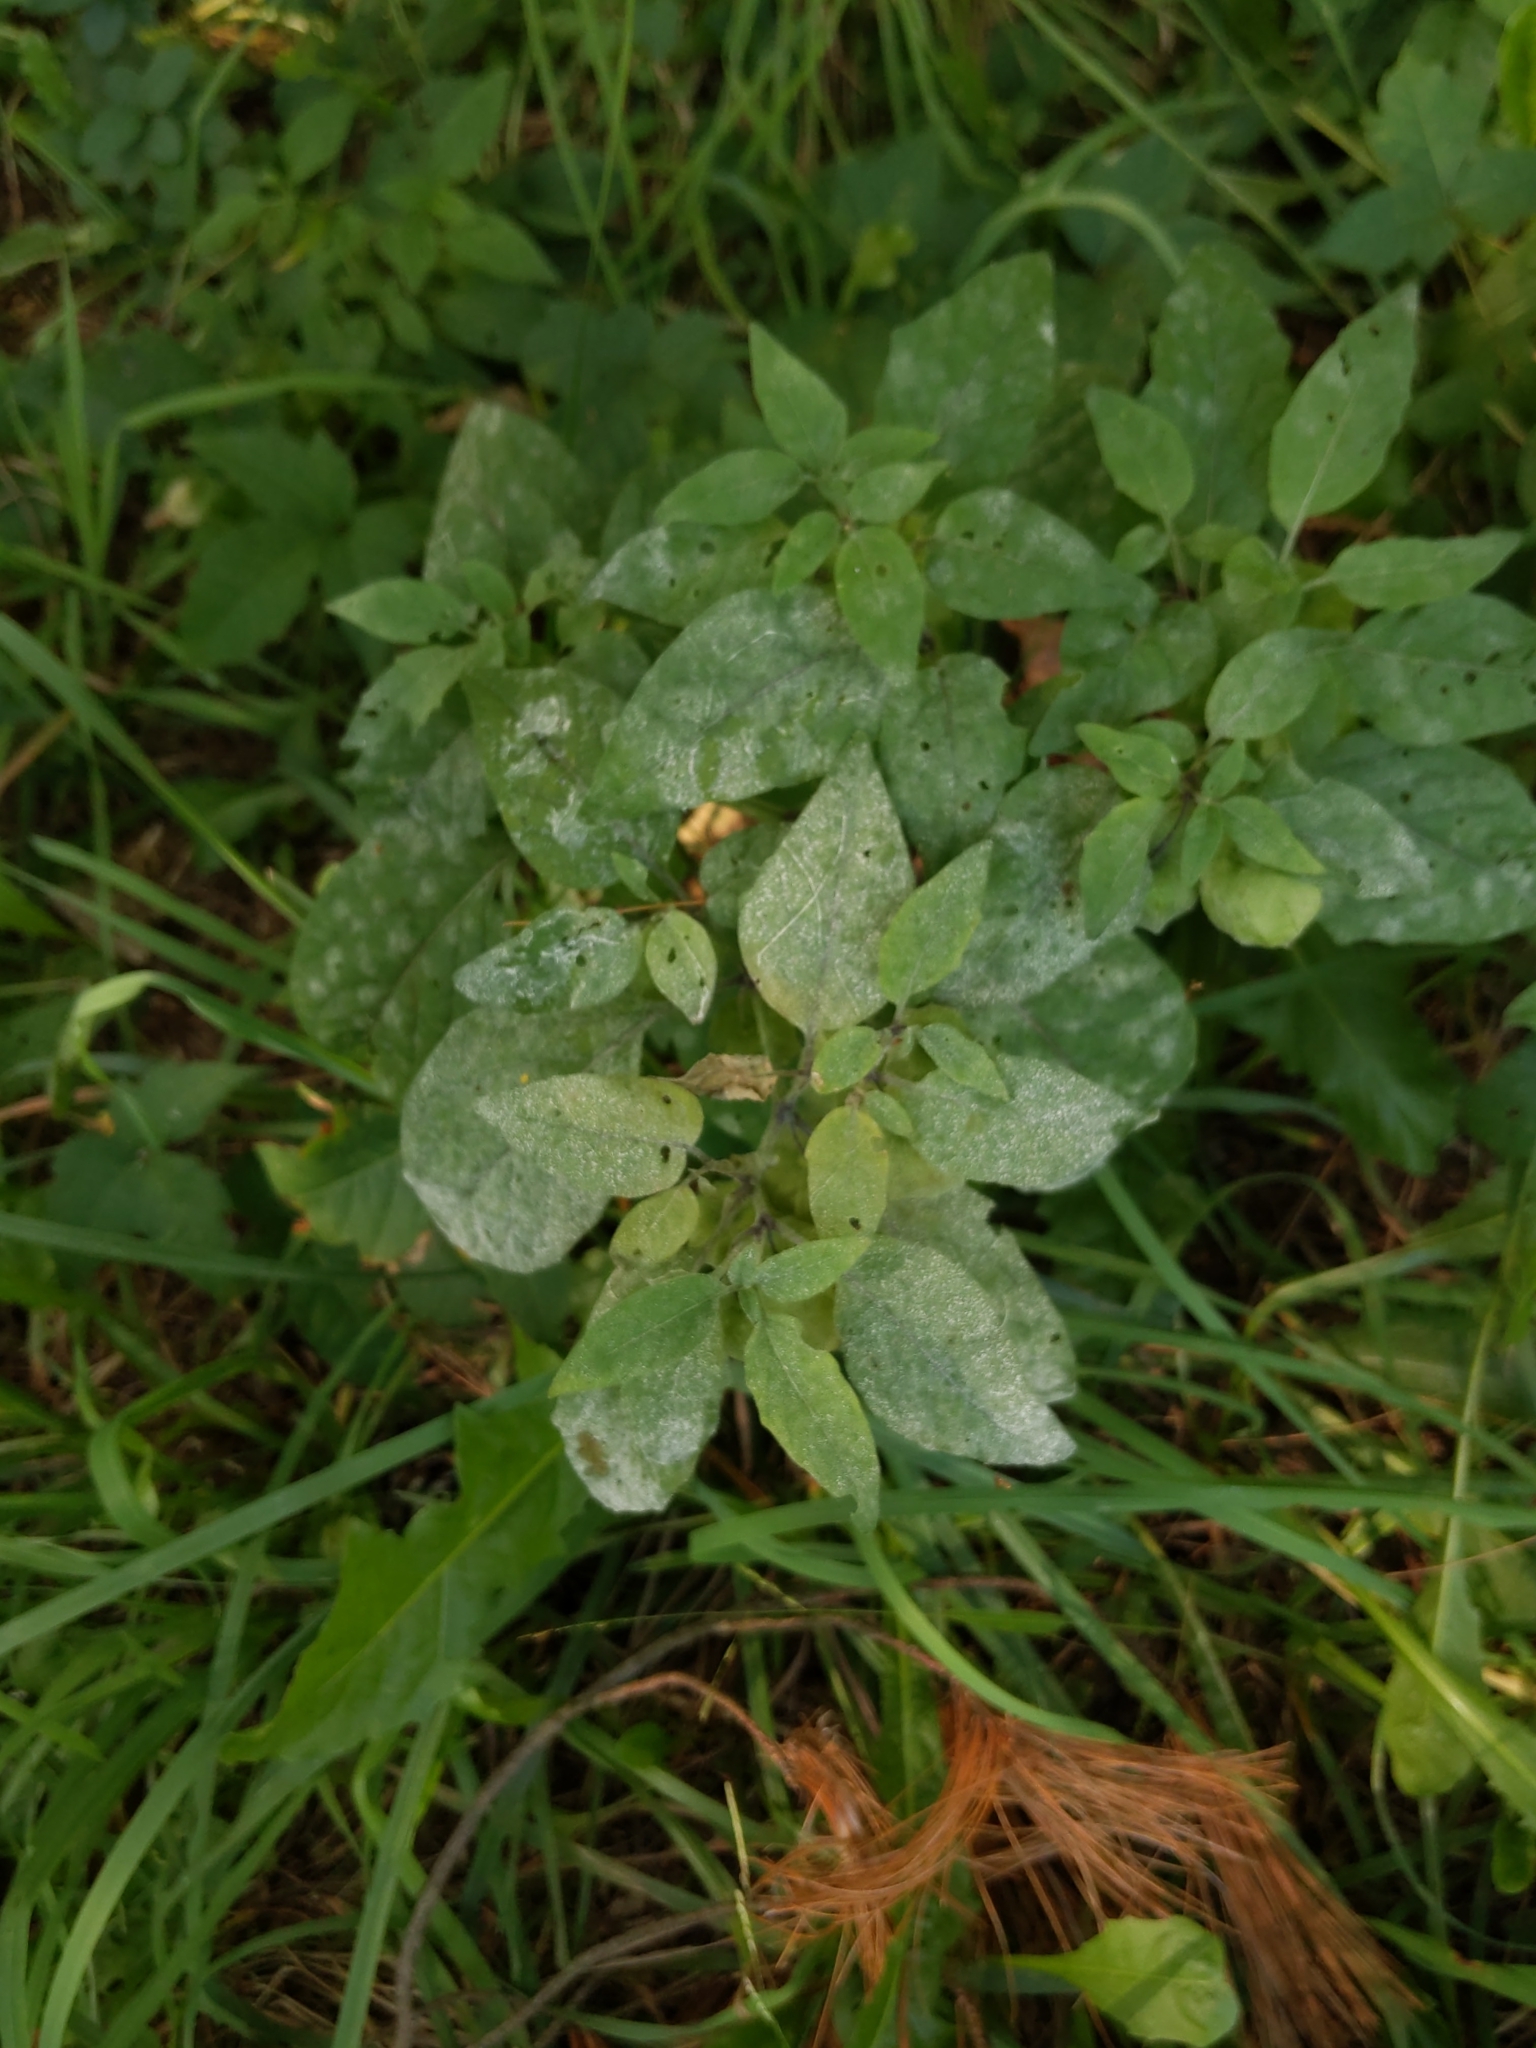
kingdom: Plantae
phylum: Tracheophyta
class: Magnoliopsida
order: Solanales
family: Solanaceae
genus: Physalis
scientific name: Physalis longifolia
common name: Common ground-cherry
